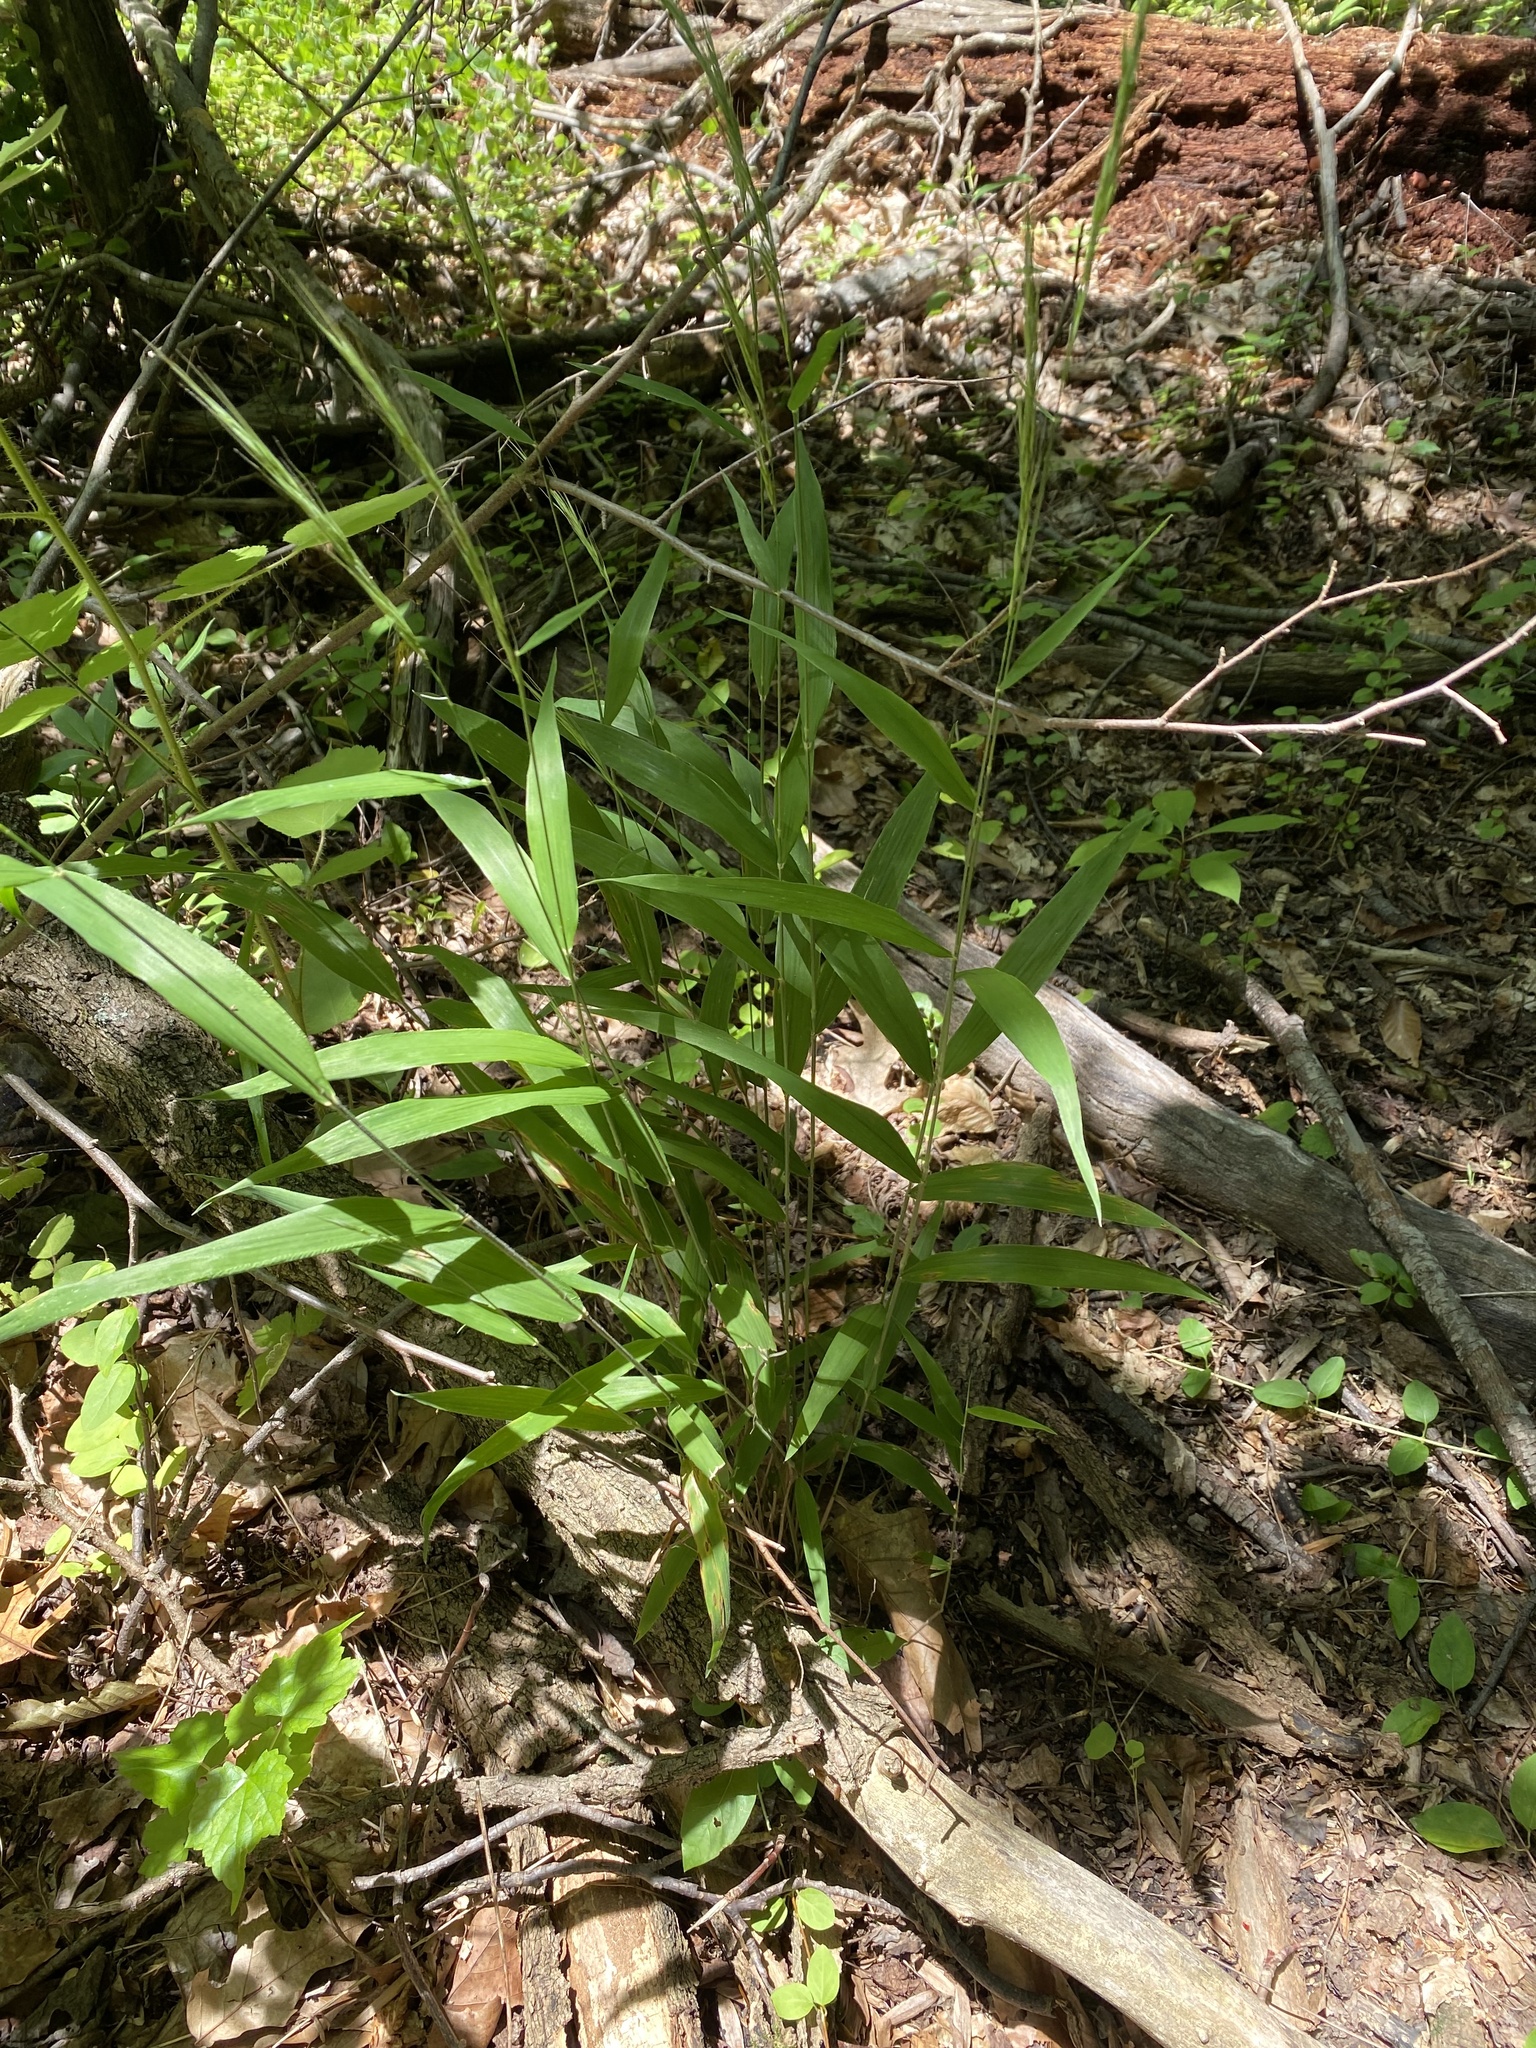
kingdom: Plantae
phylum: Tracheophyta
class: Liliopsida
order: Poales
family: Poaceae
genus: Brachyelytrum
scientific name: Brachyelytrum erectum
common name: Bearded shorthusk
